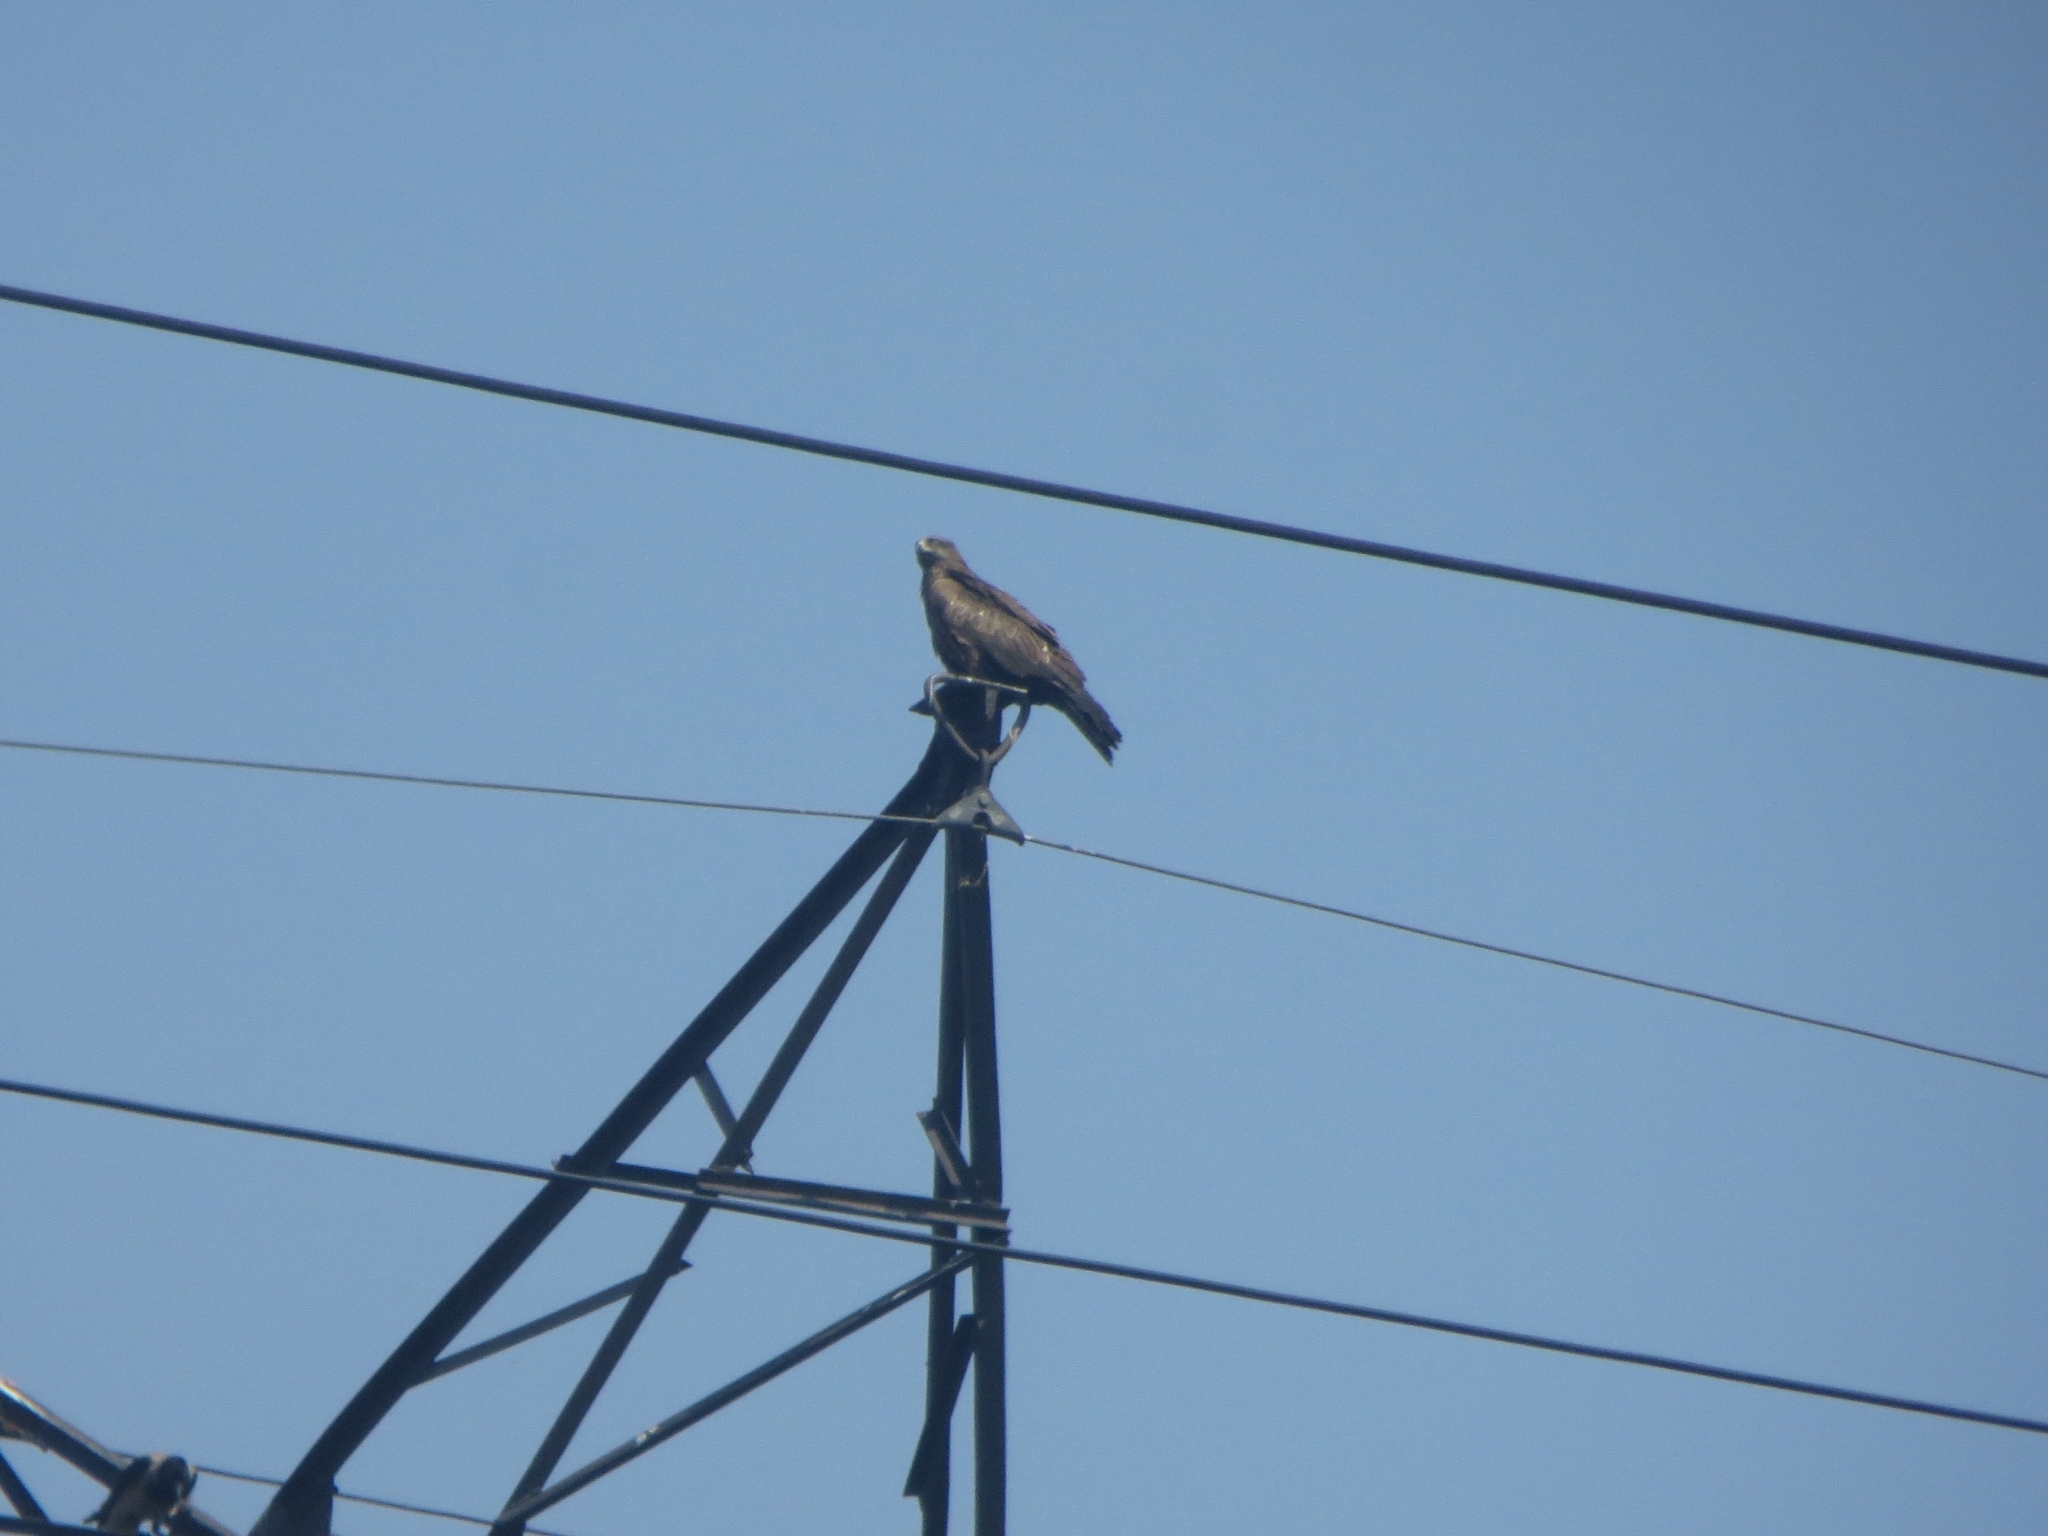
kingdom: Animalia
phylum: Chordata
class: Aves
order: Accipitriformes
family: Accipitridae
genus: Milvus
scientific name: Milvus migrans
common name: Black kite
